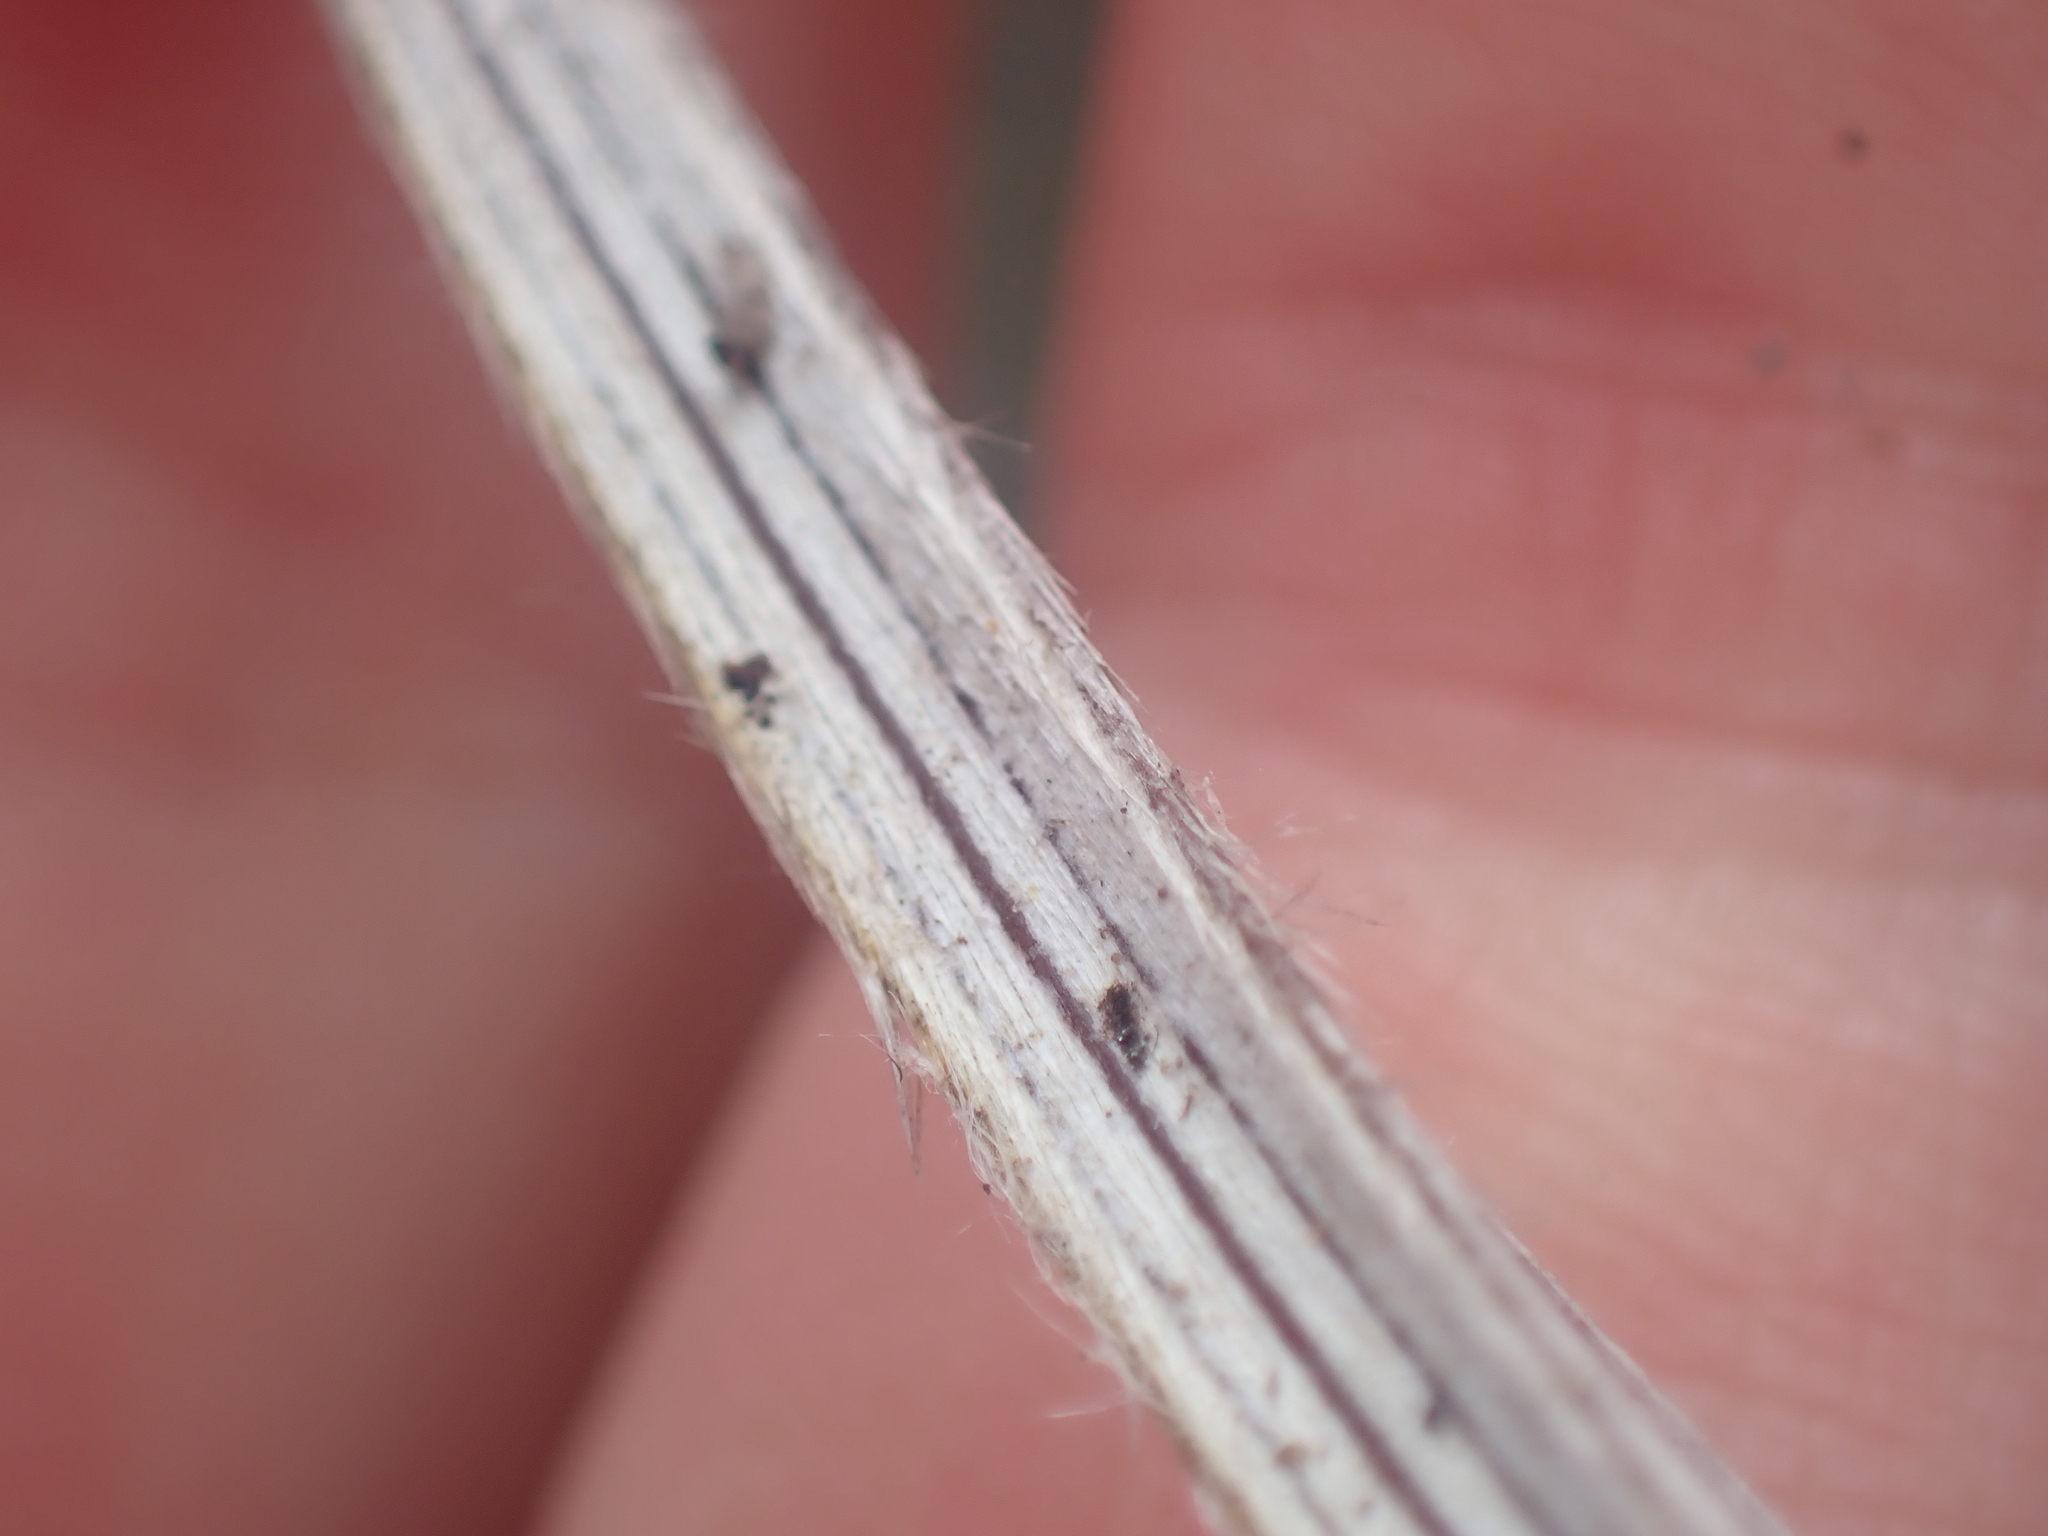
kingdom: Plantae
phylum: Tracheophyta
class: Liliopsida
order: Asparagales
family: Asteliaceae
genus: Astelia
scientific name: Astelia graminea
